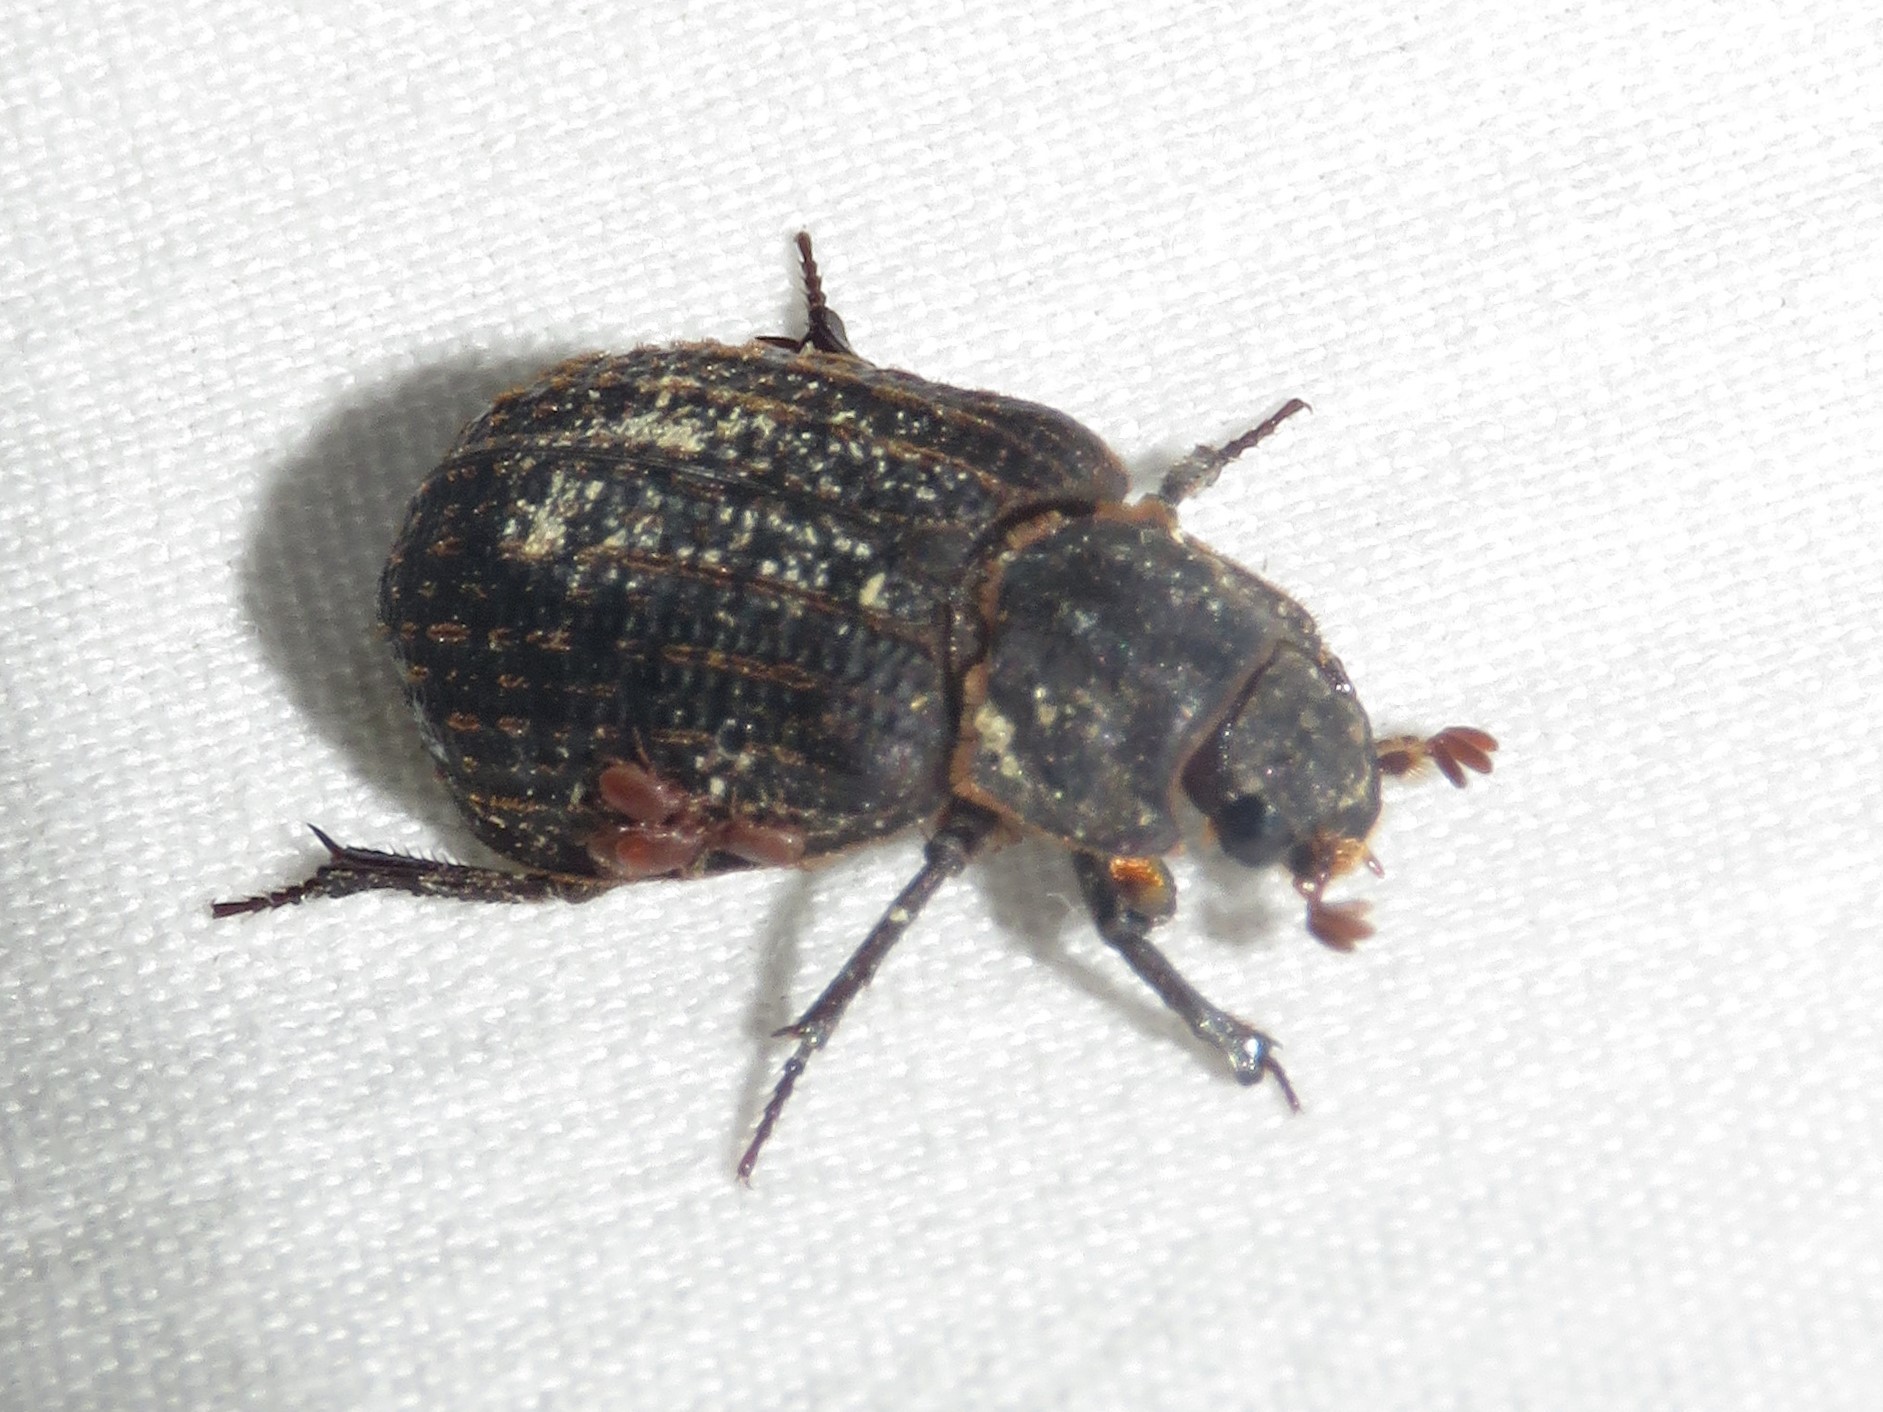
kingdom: Animalia
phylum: Arthropoda
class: Insecta
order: Coleoptera
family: Trogidae
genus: Trox
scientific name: Trox scaber
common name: Hide beetle
